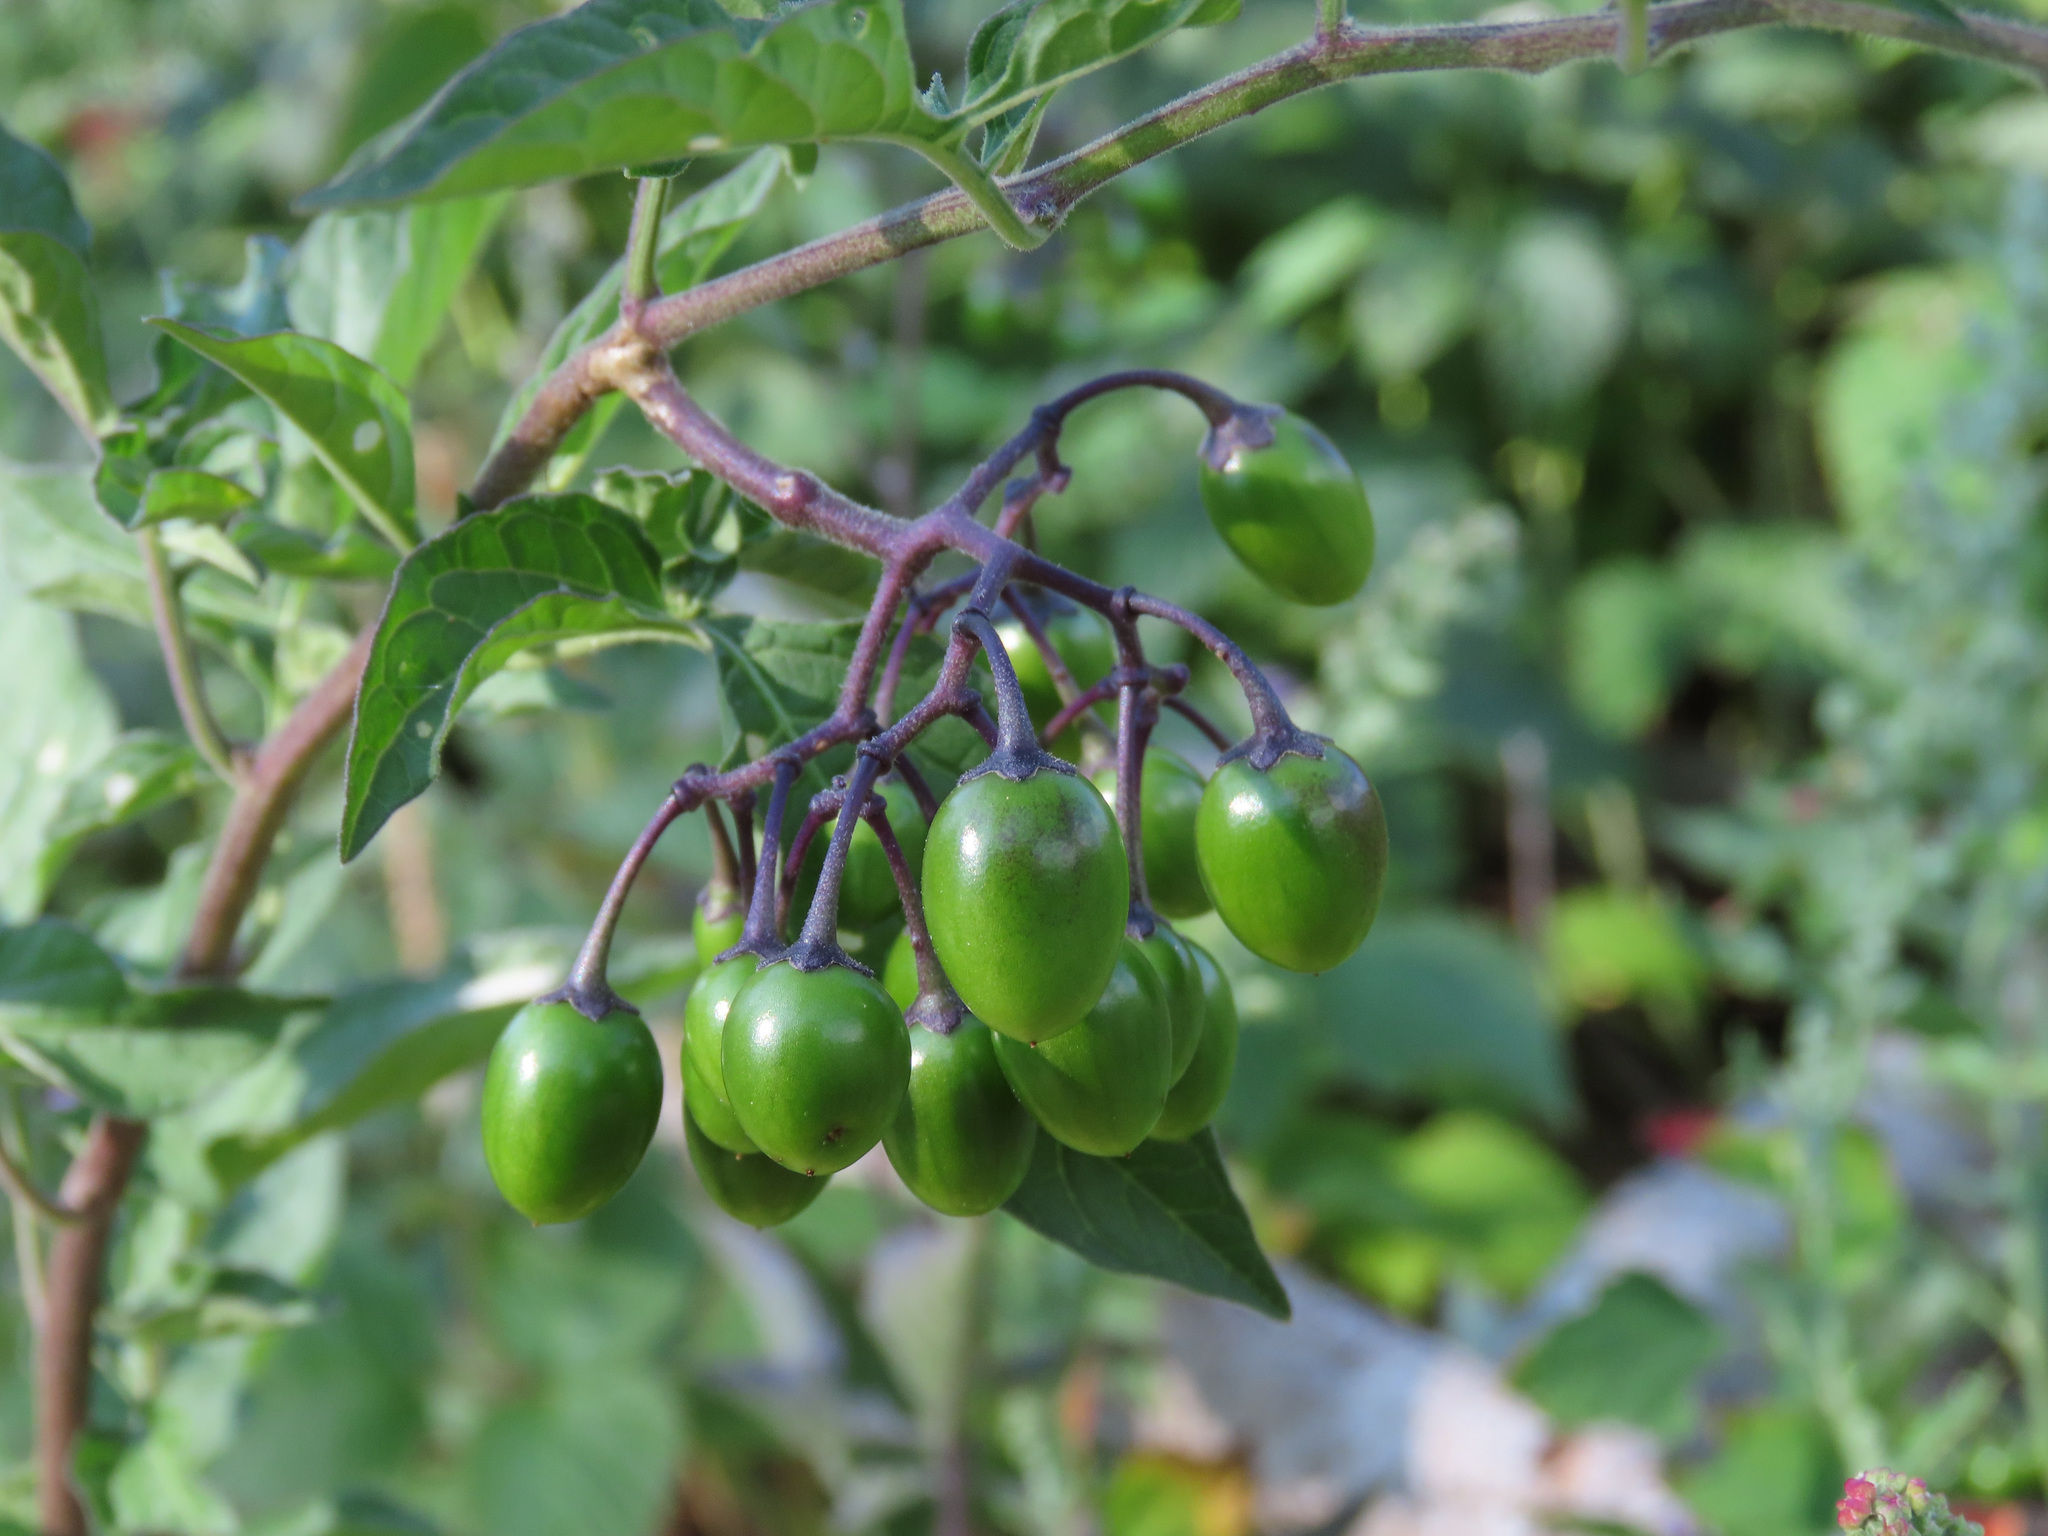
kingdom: Plantae
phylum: Tracheophyta
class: Magnoliopsida
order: Solanales
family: Solanaceae
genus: Solanum
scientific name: Solanum dulcamara
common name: Climbing nightshade
